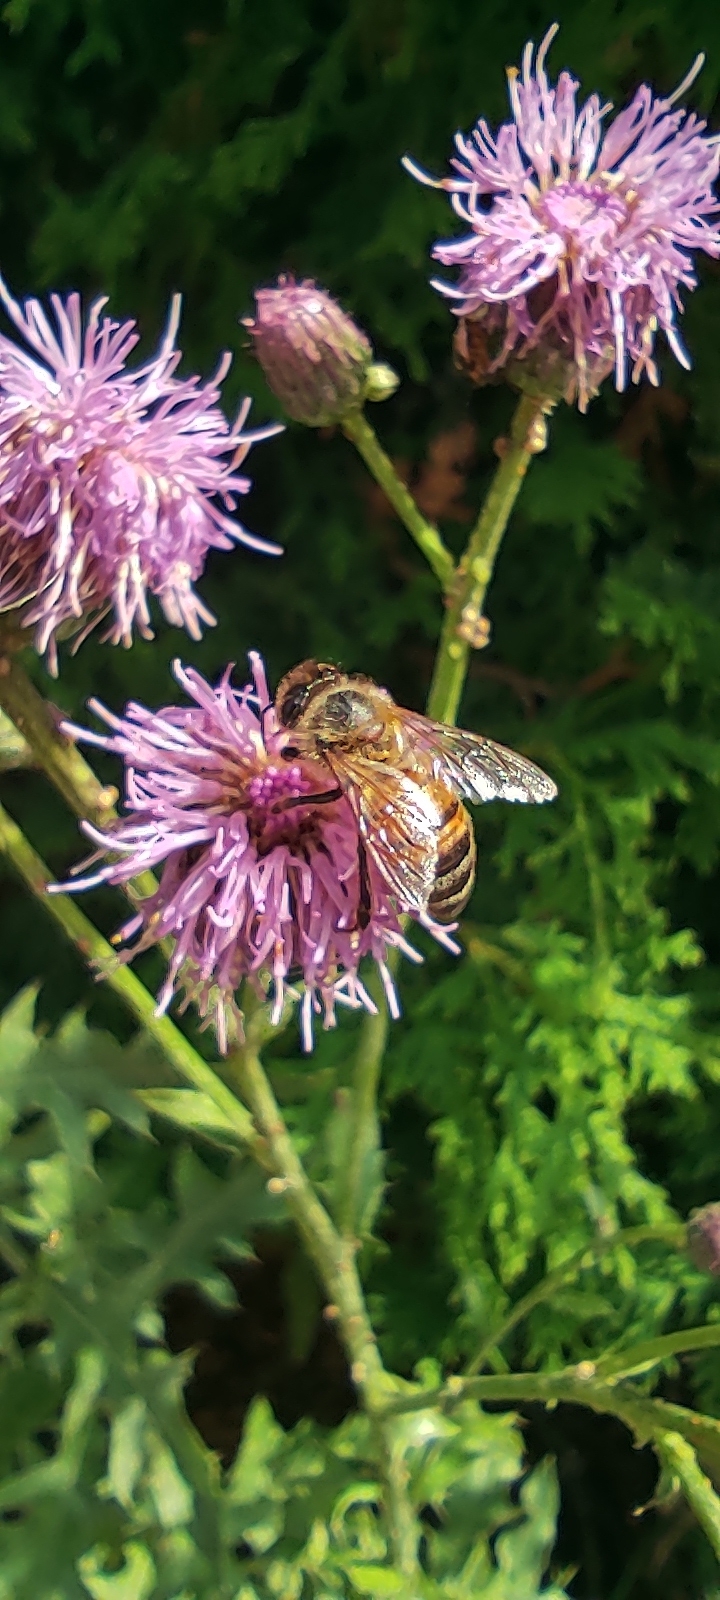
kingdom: Animalia
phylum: Arthropoda
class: Insecta
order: Hymenoptera
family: Apidae
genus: Apis
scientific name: Apis mellifera
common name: Honey bee
